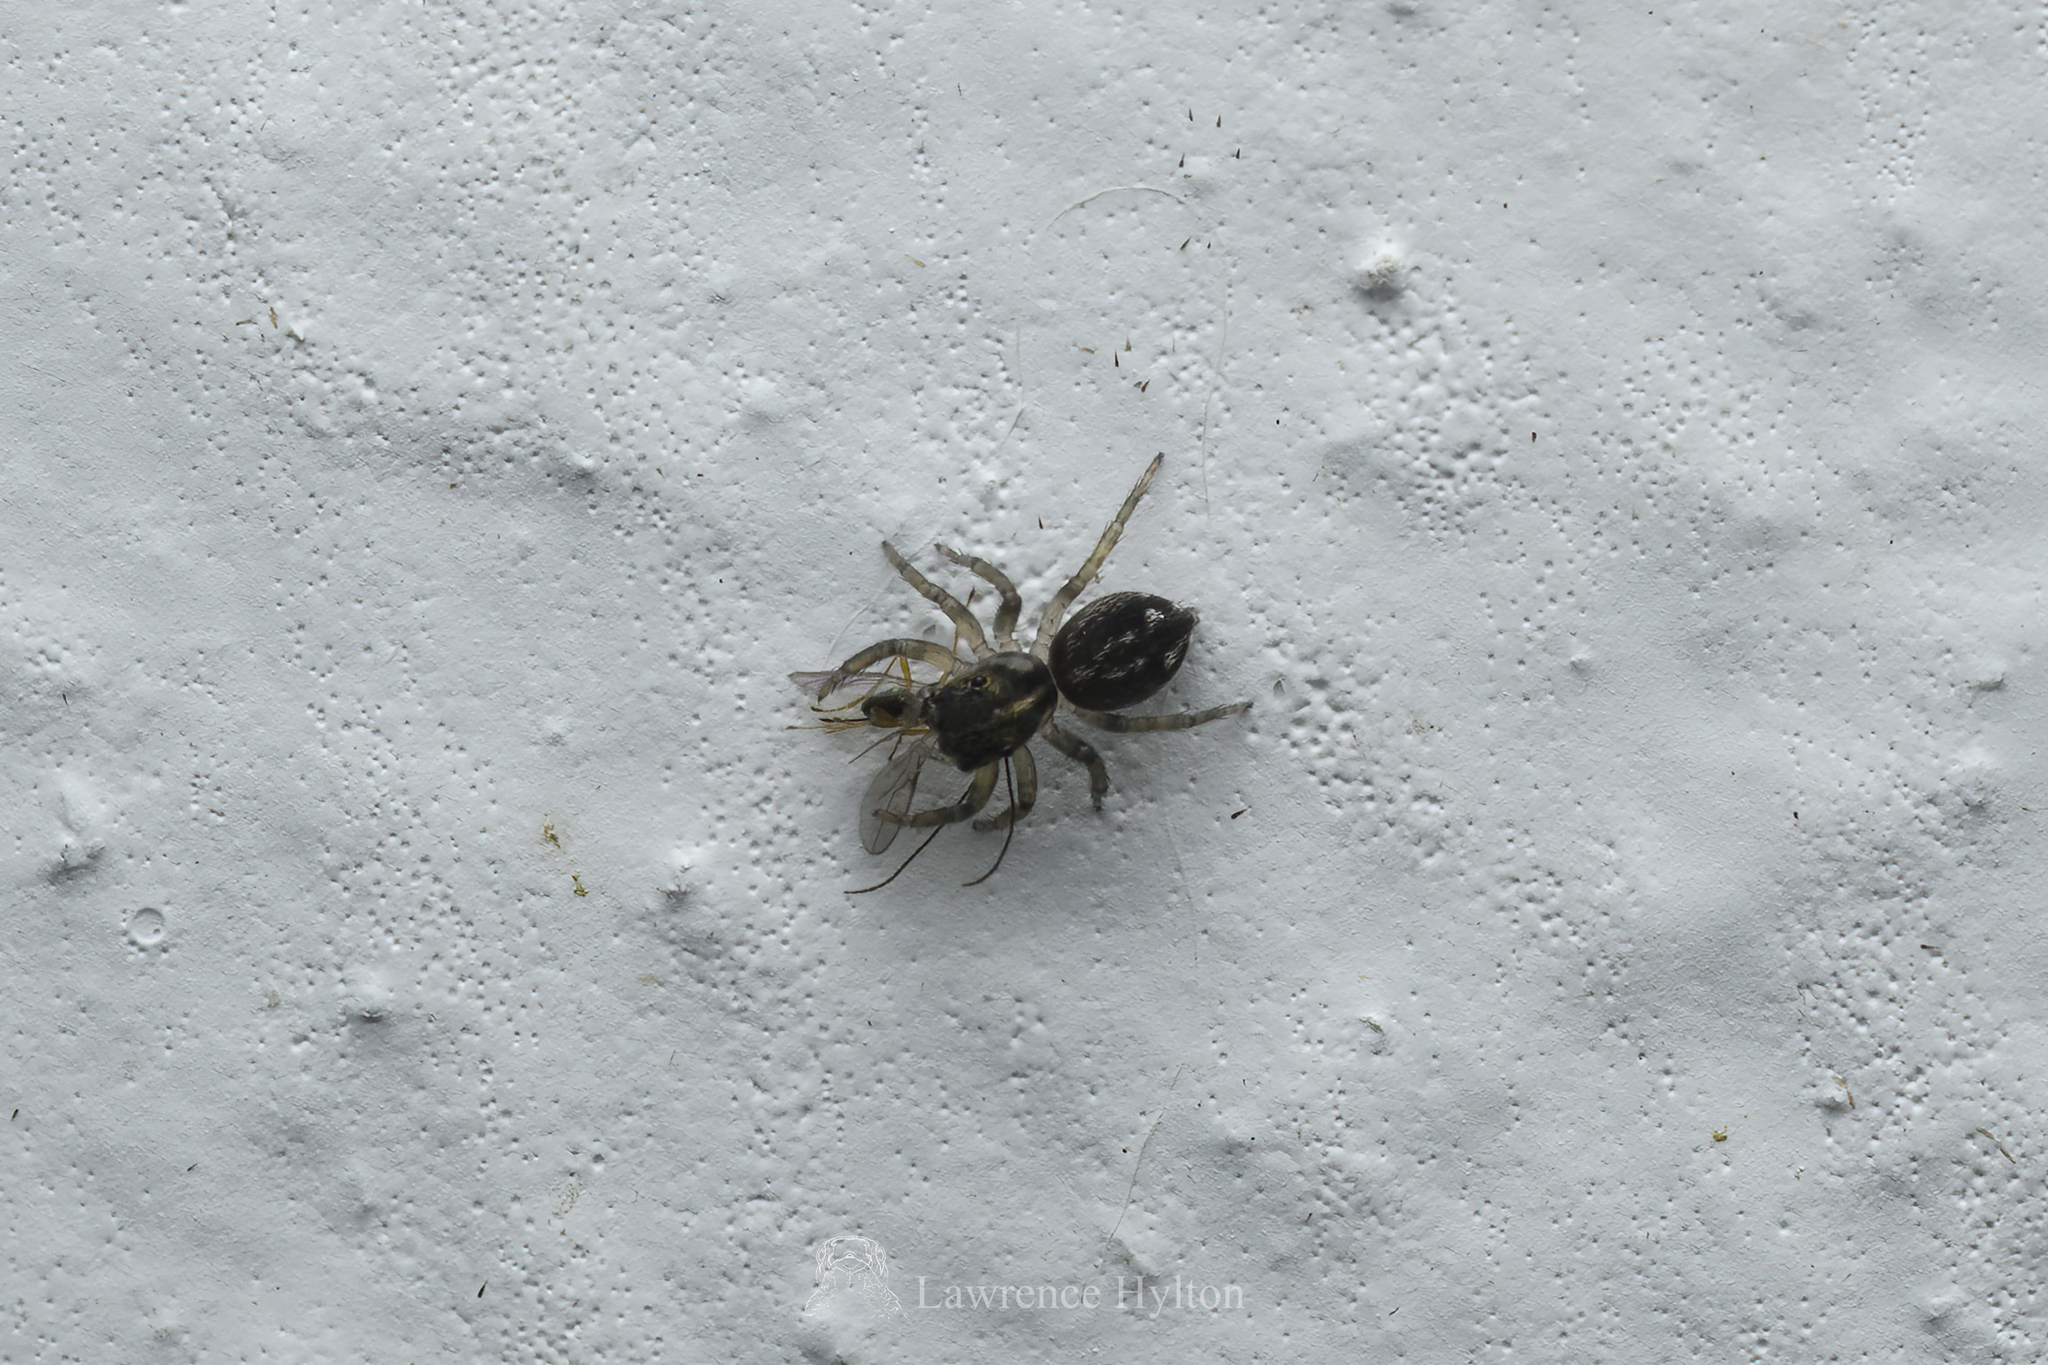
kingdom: Animalia
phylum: Arthropoda
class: Arachnida
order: Araneae
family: Salticidae
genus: Hasarius
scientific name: Hasarius adansoni
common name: Jumping spider
